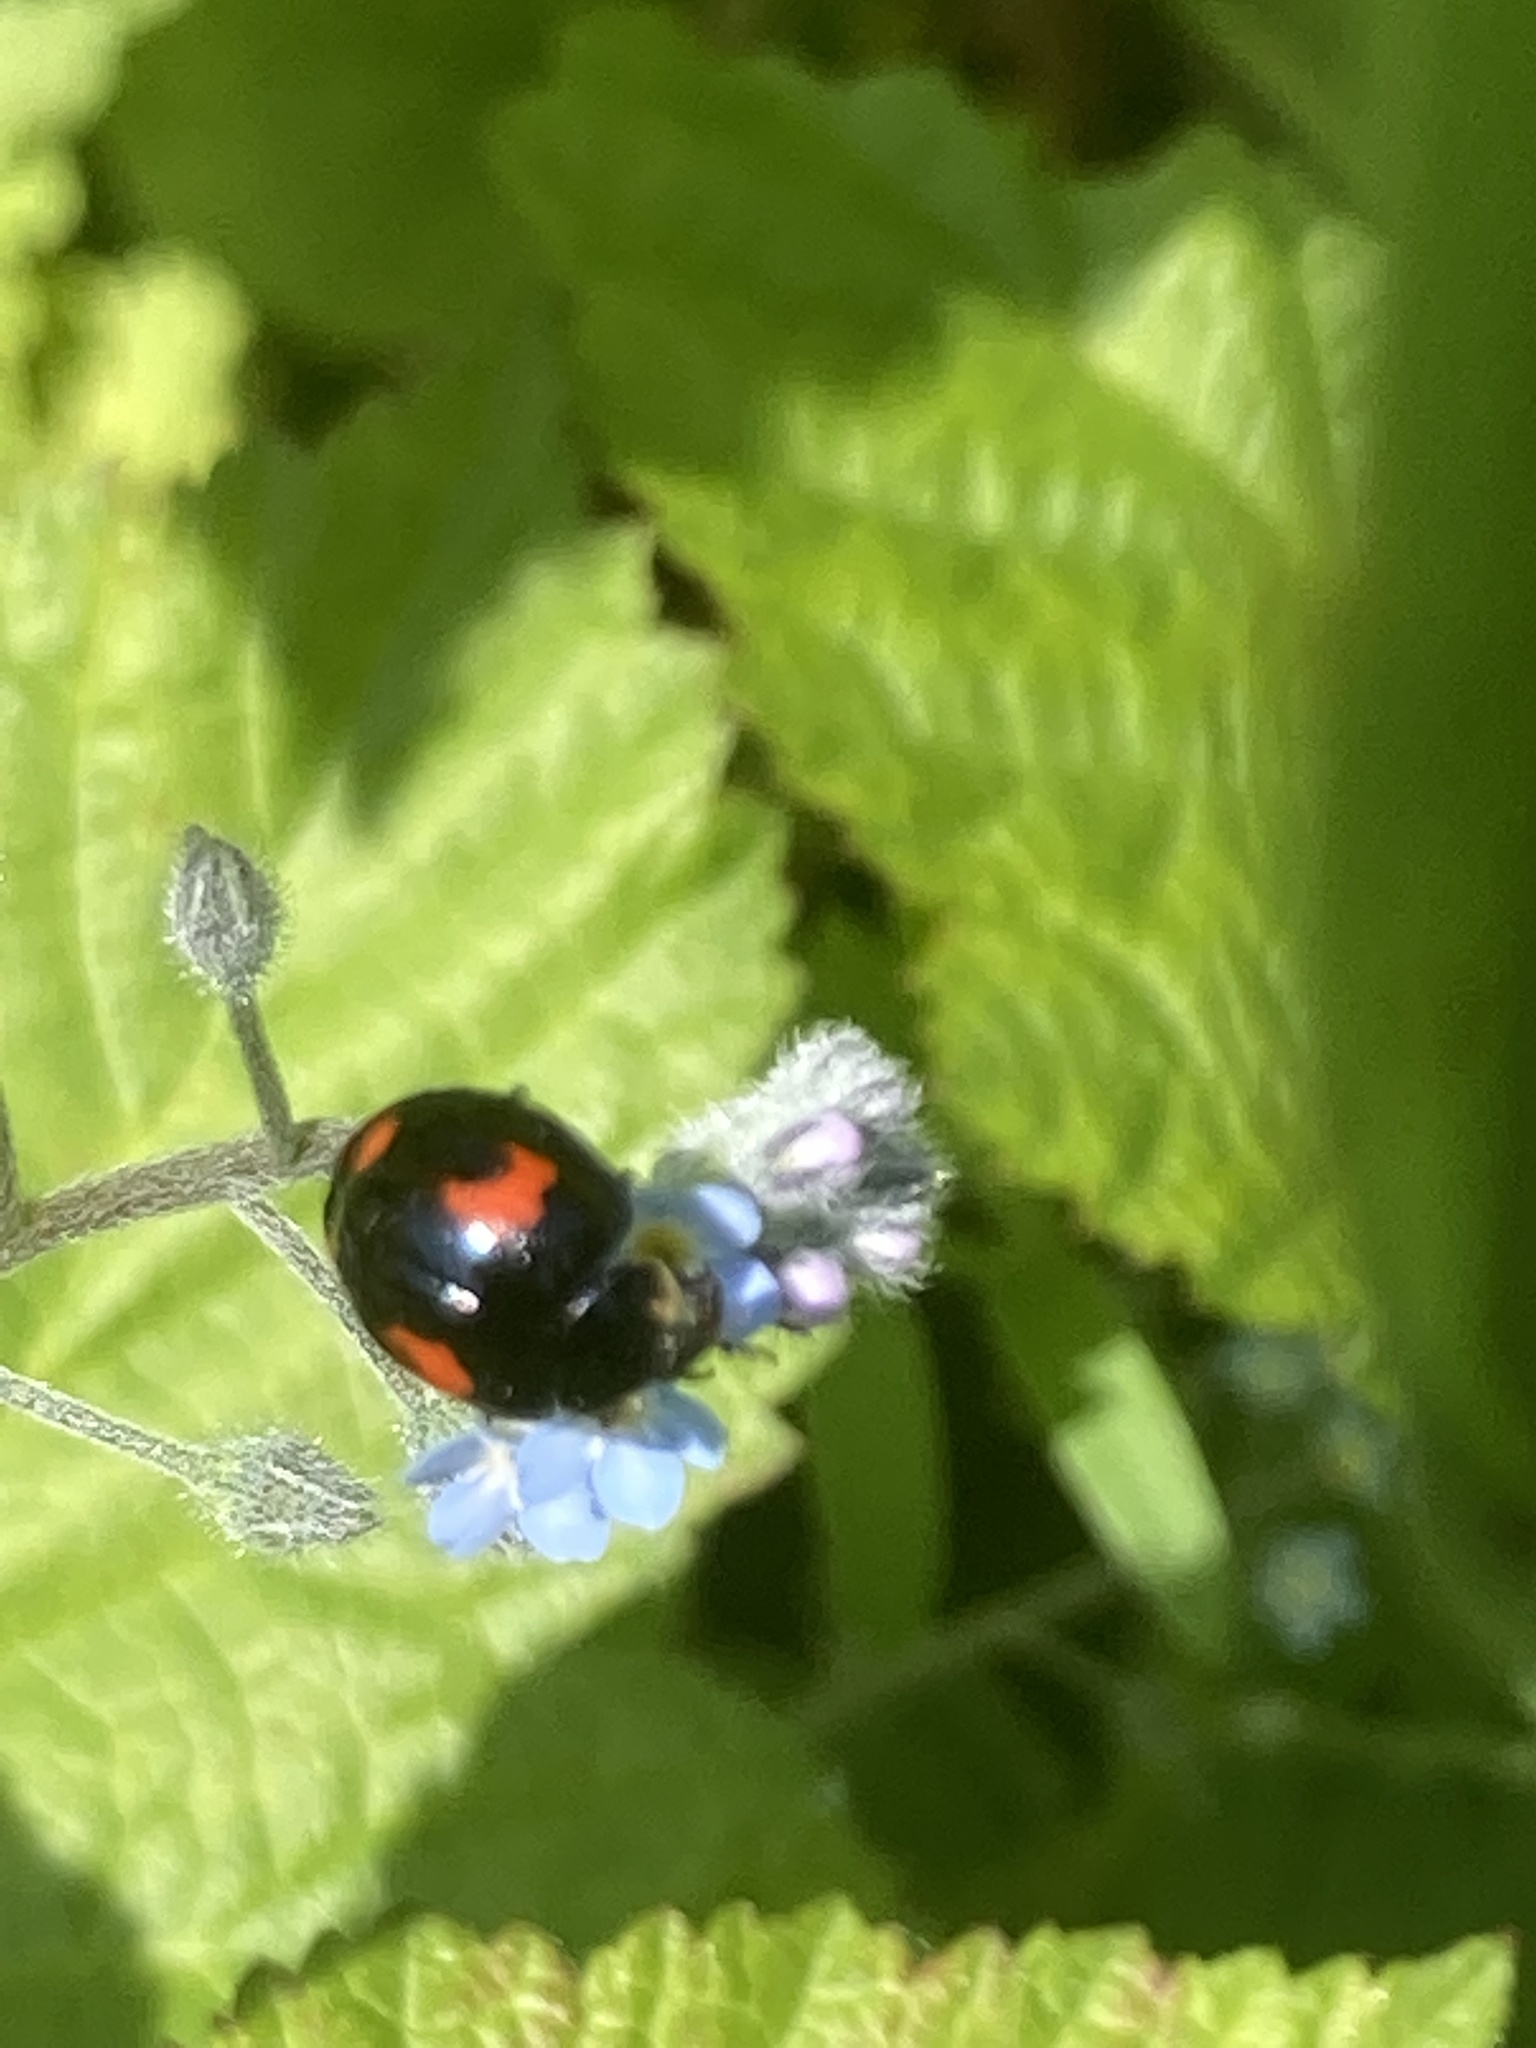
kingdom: Animalia
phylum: Arthropoda
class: Insecta
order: Coleoptera
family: Coccinellidae
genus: Harmonia
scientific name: Harmonia axyridis
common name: Harlequin ladybird
